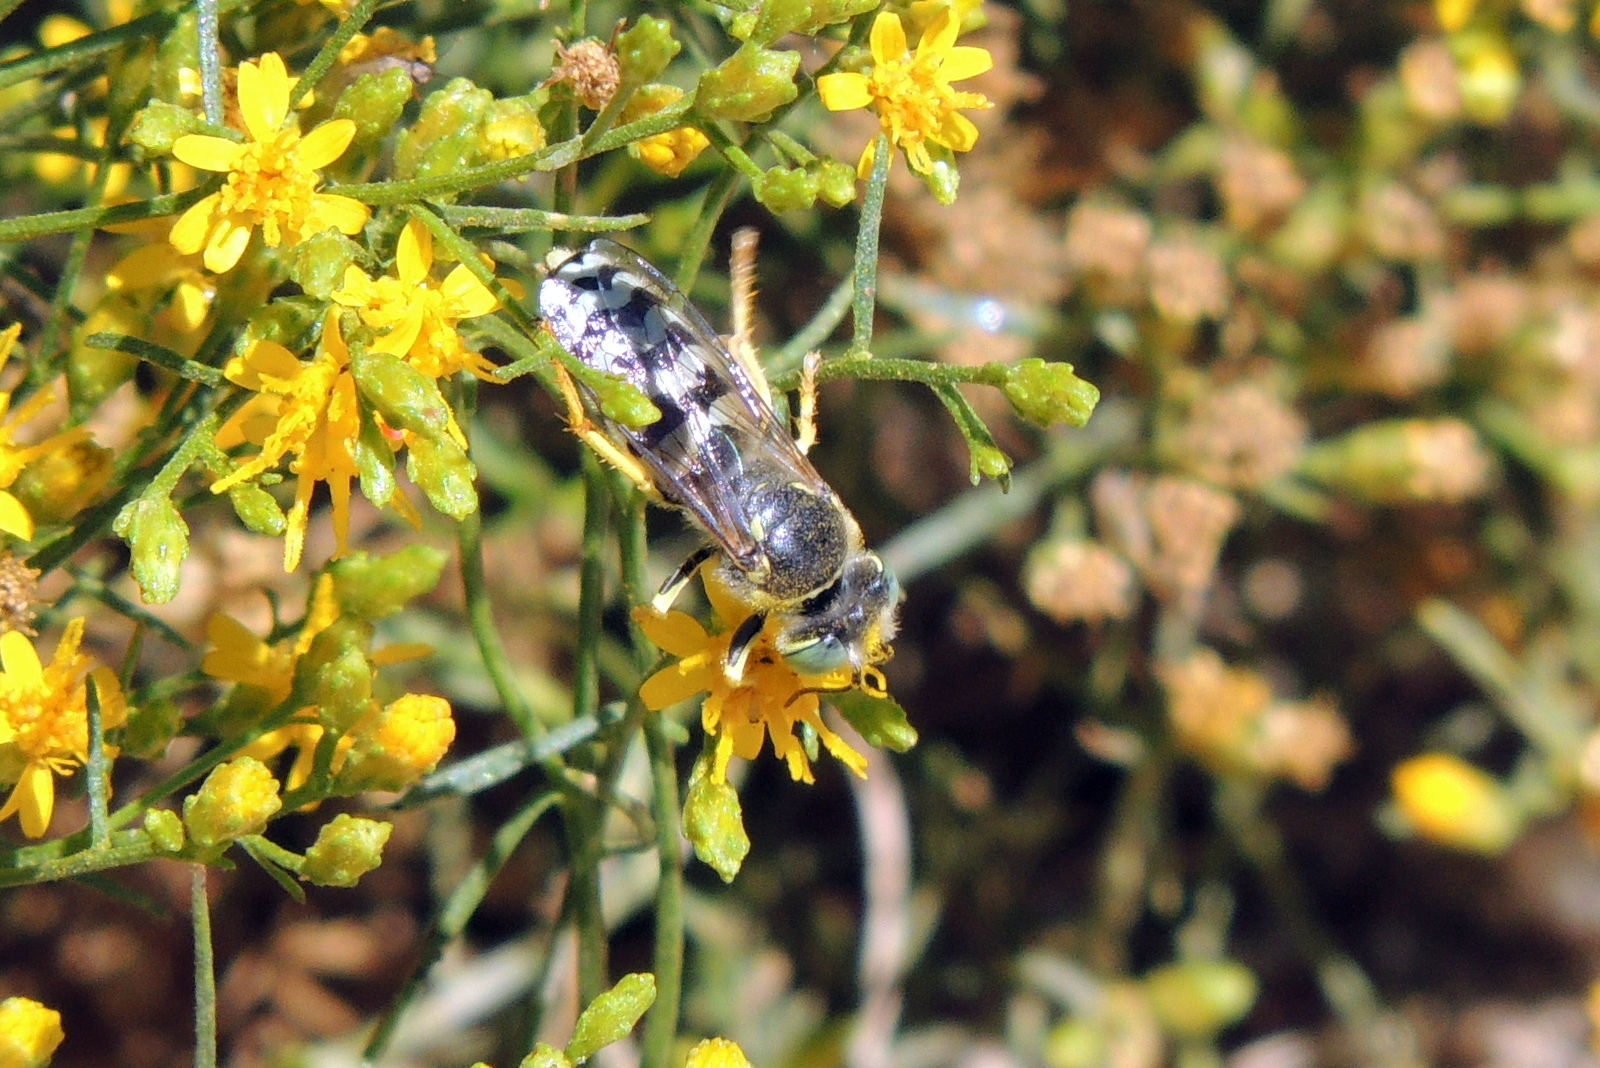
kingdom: Animalia
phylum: Arthropoda
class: Insecta
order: Hymenoptera
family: Crabronidae
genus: Bembix
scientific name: Bembix americana
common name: American sand wasp
